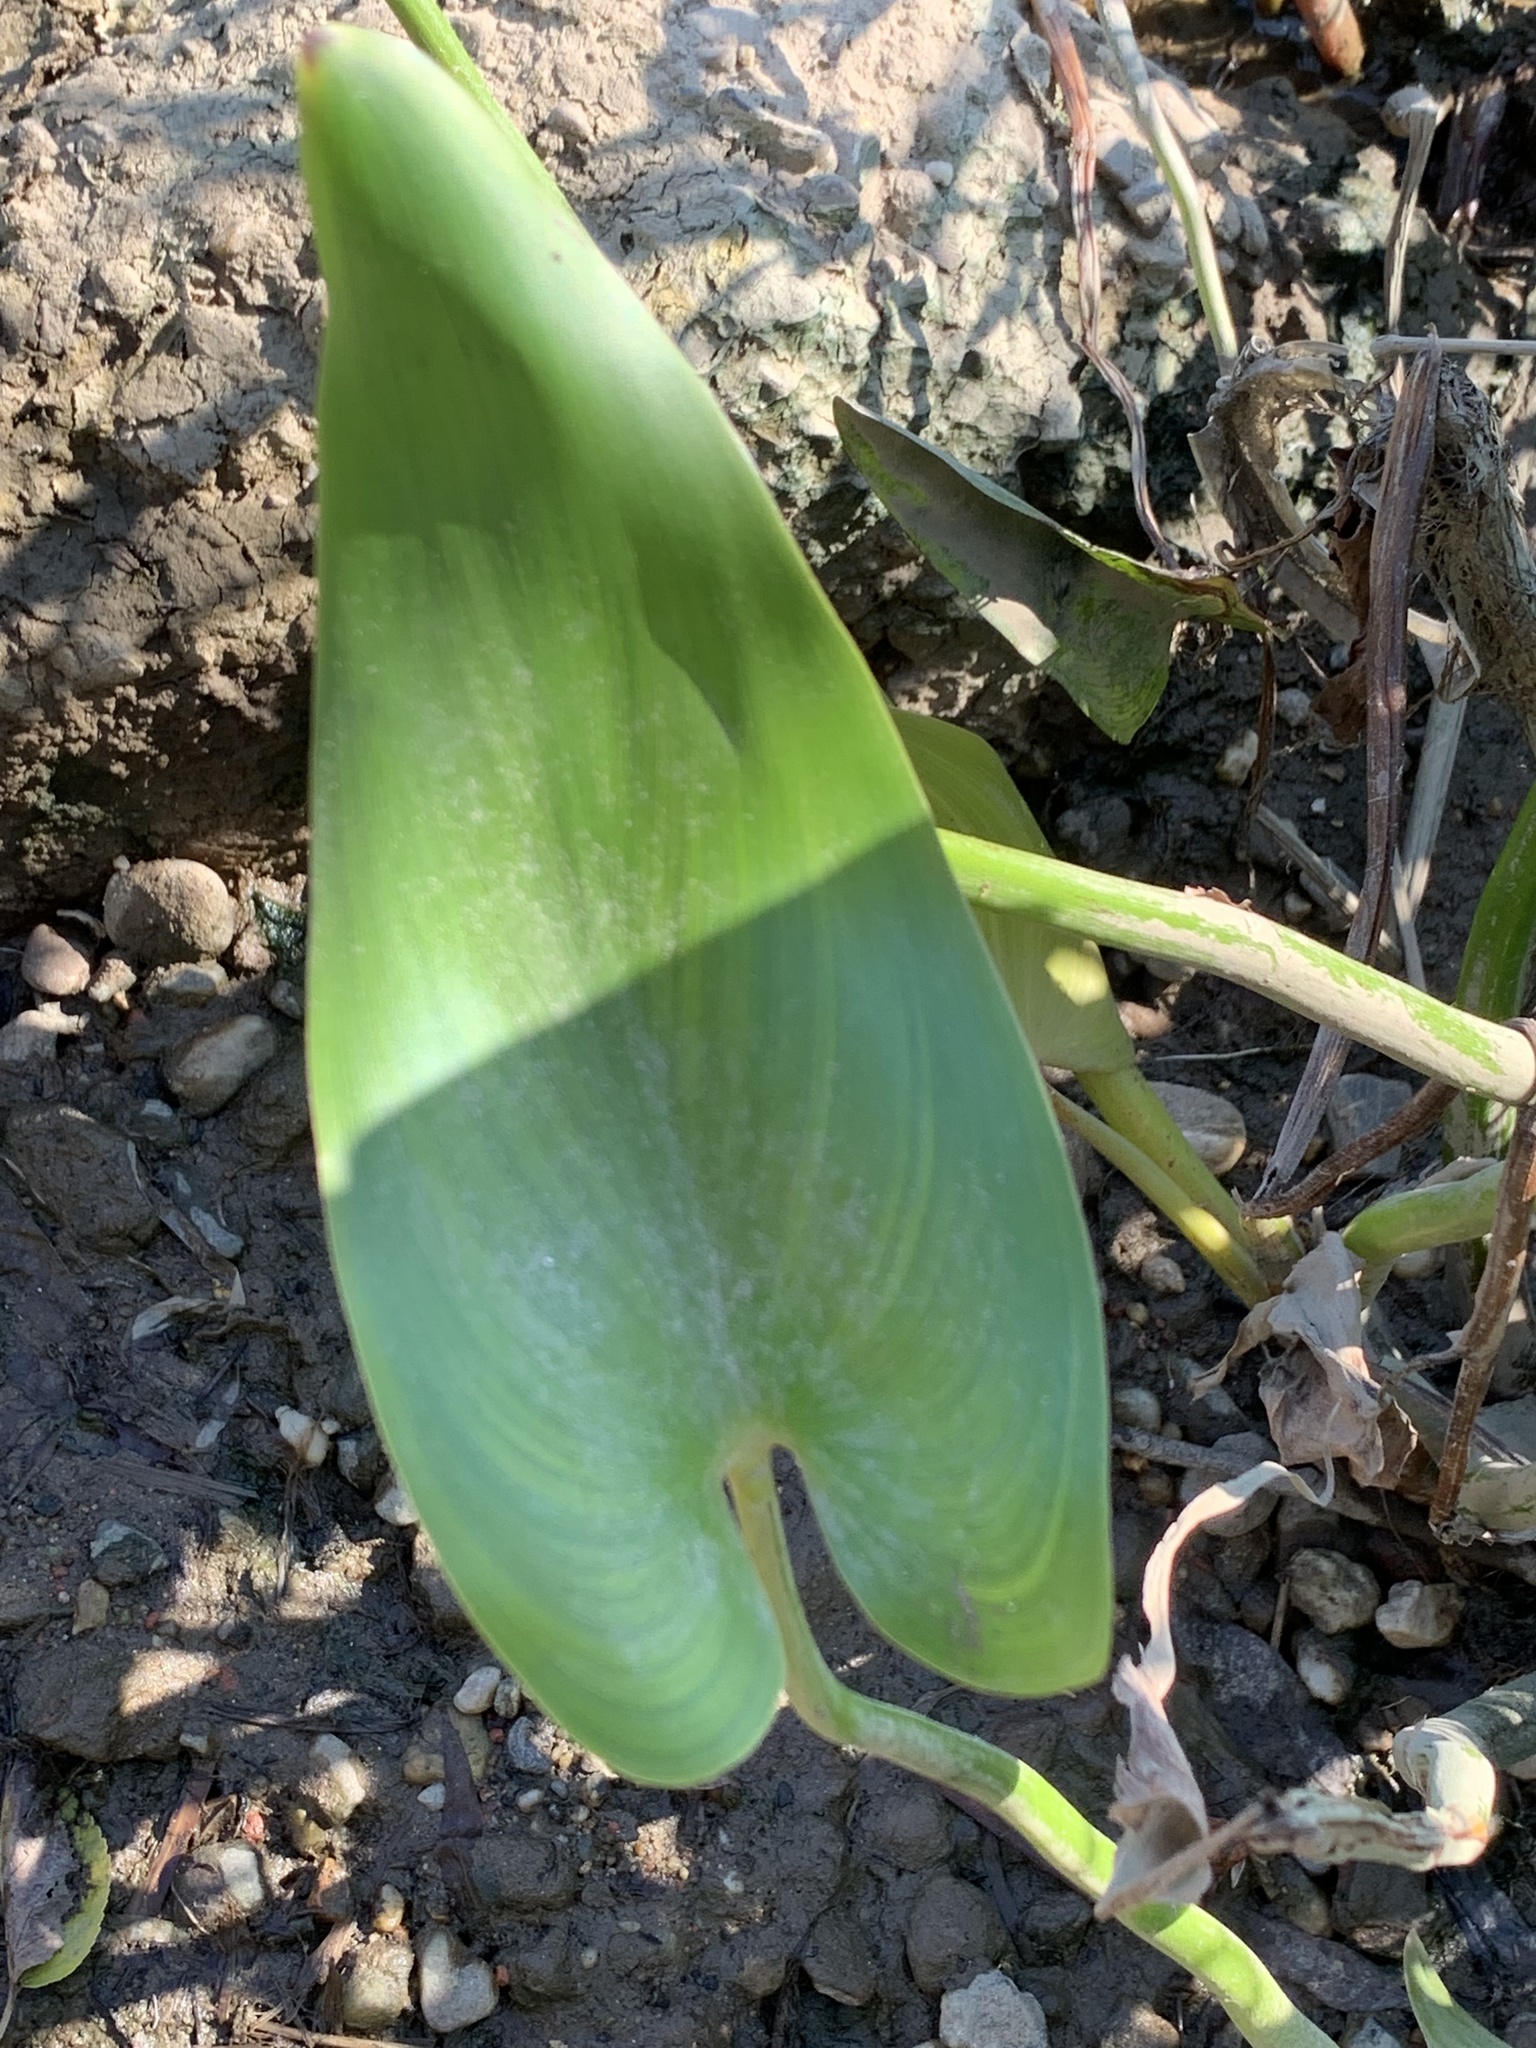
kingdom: Plantae
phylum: Tracheophyta
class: Liliopsida
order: Commelinales
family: Pontederiaceae
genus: Pontederia
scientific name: Pontederia cordata
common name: Pickerelweed
